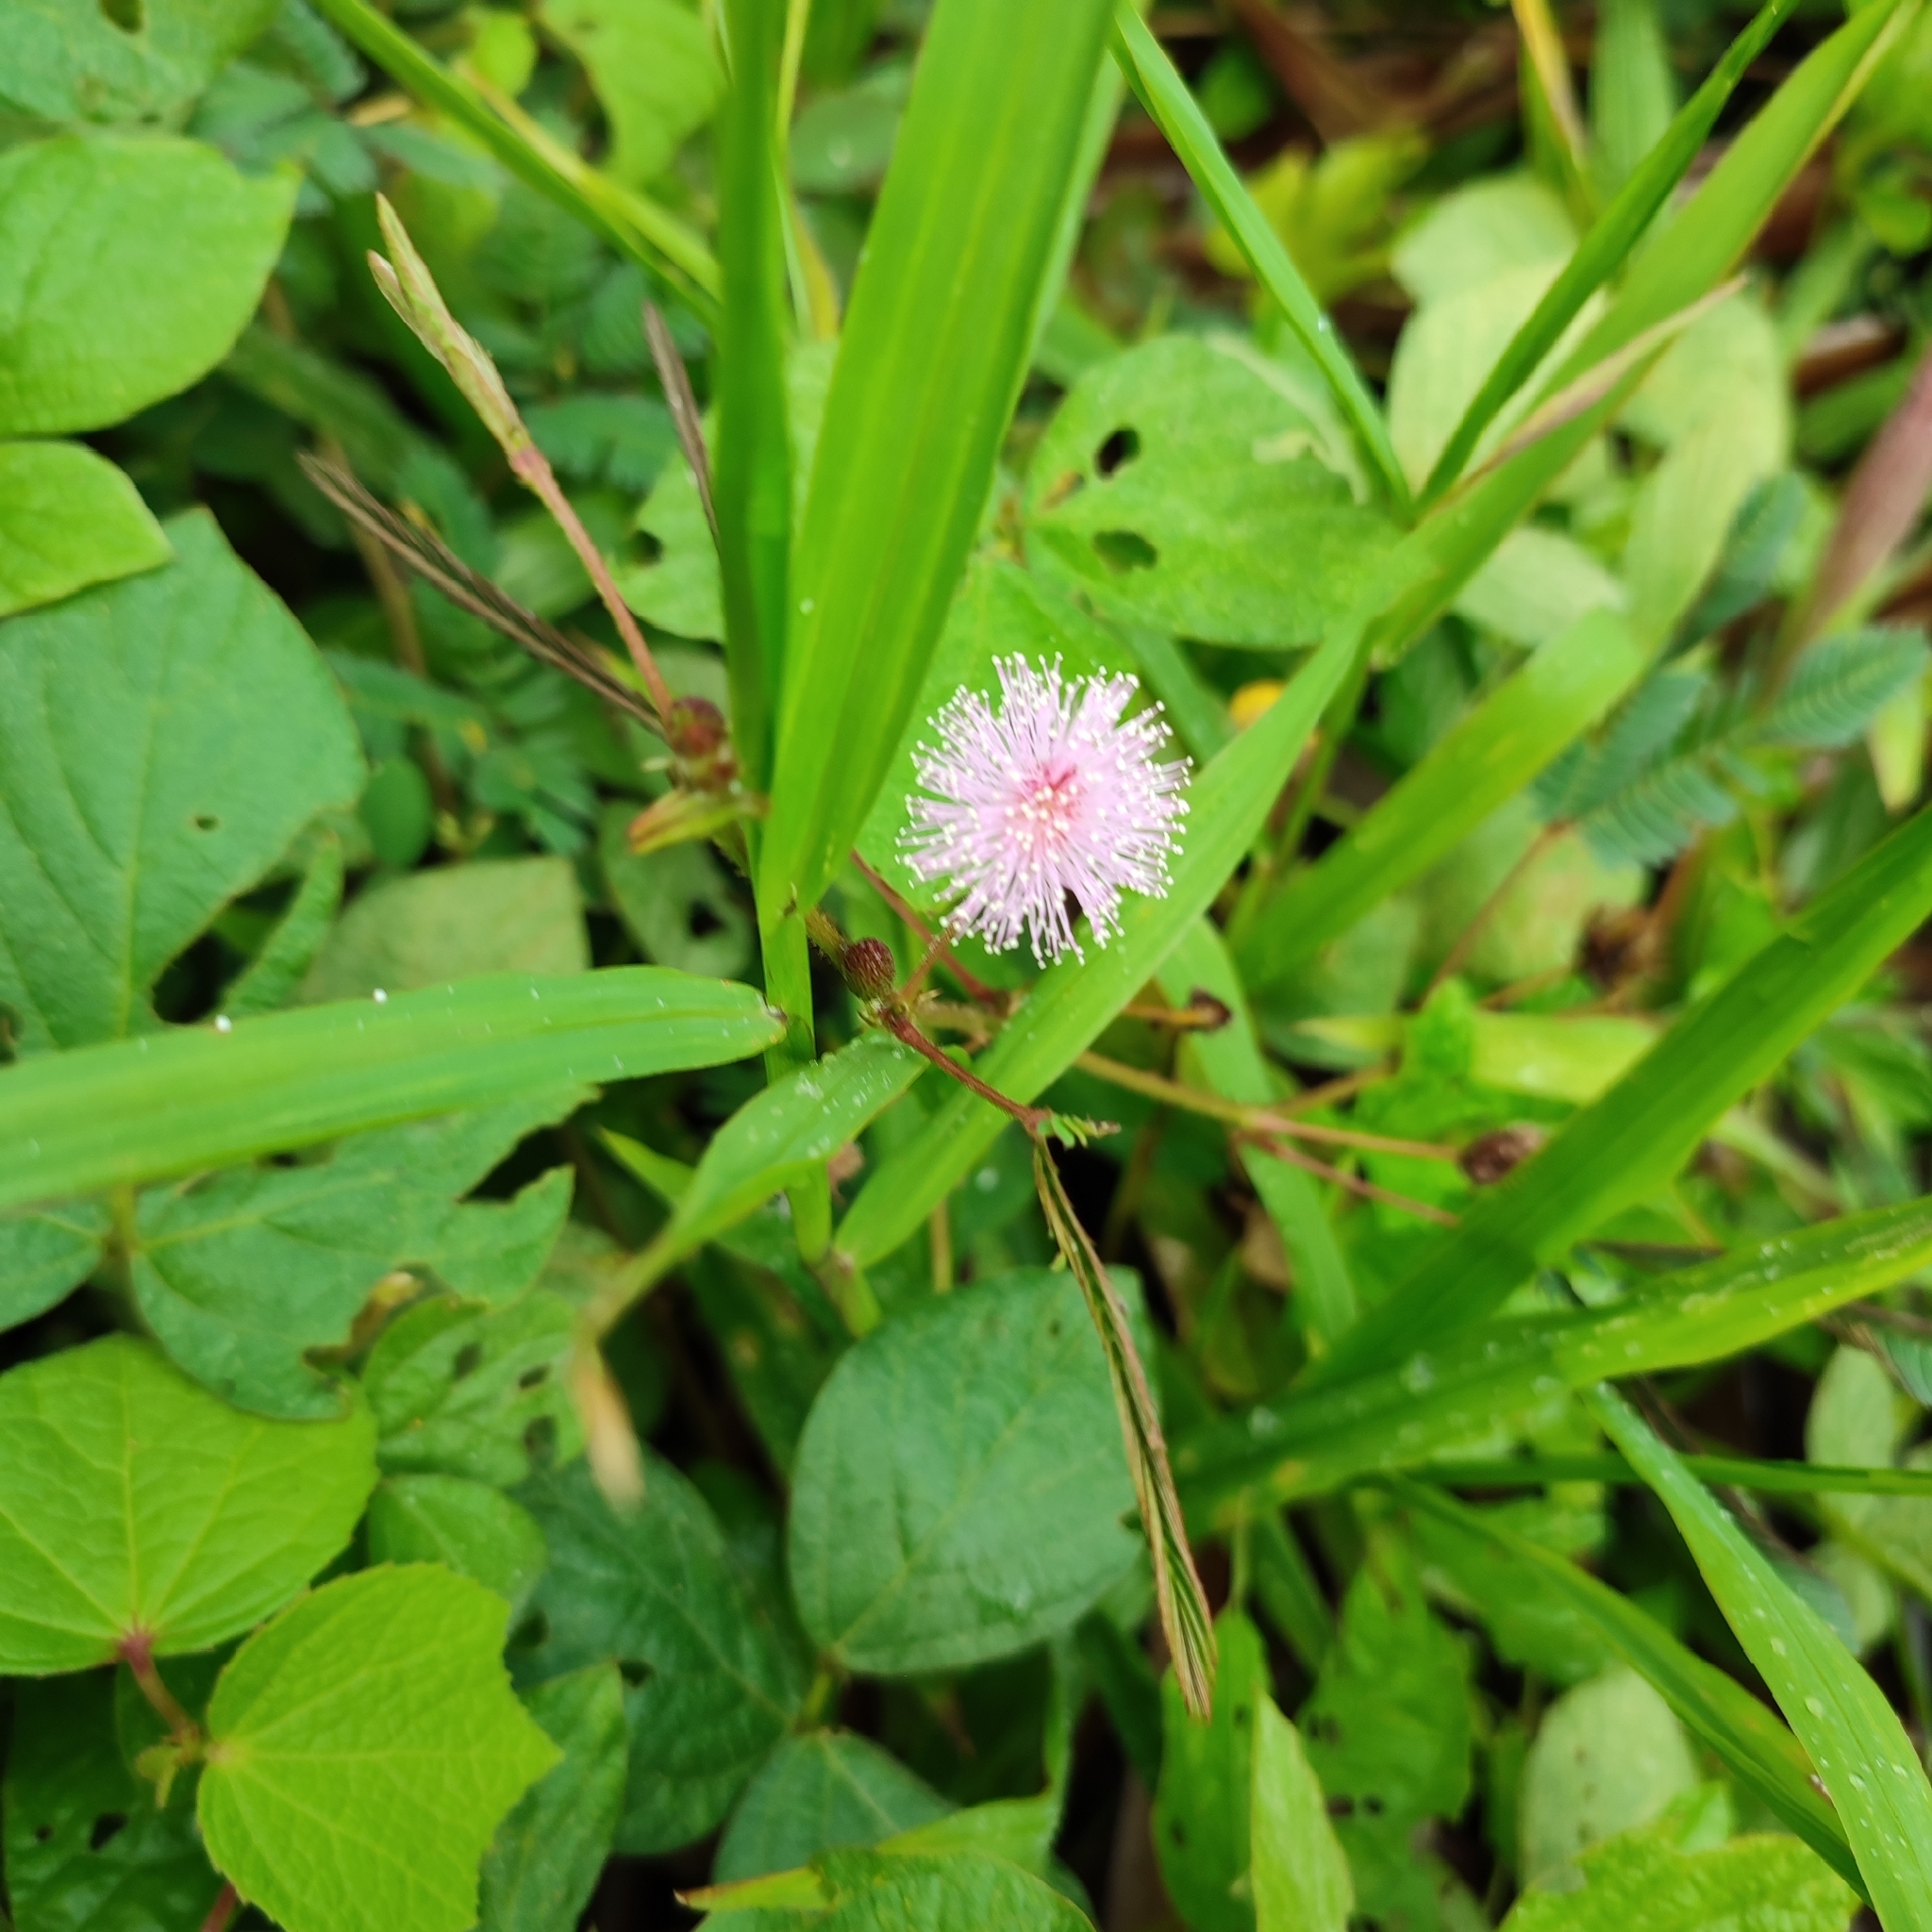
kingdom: Plantae
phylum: Tracheophyta
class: Magnoliopsida
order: Fabales
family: Fabaceae
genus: Mimosa
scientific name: Mimosa pudica
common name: Sensitive plant
